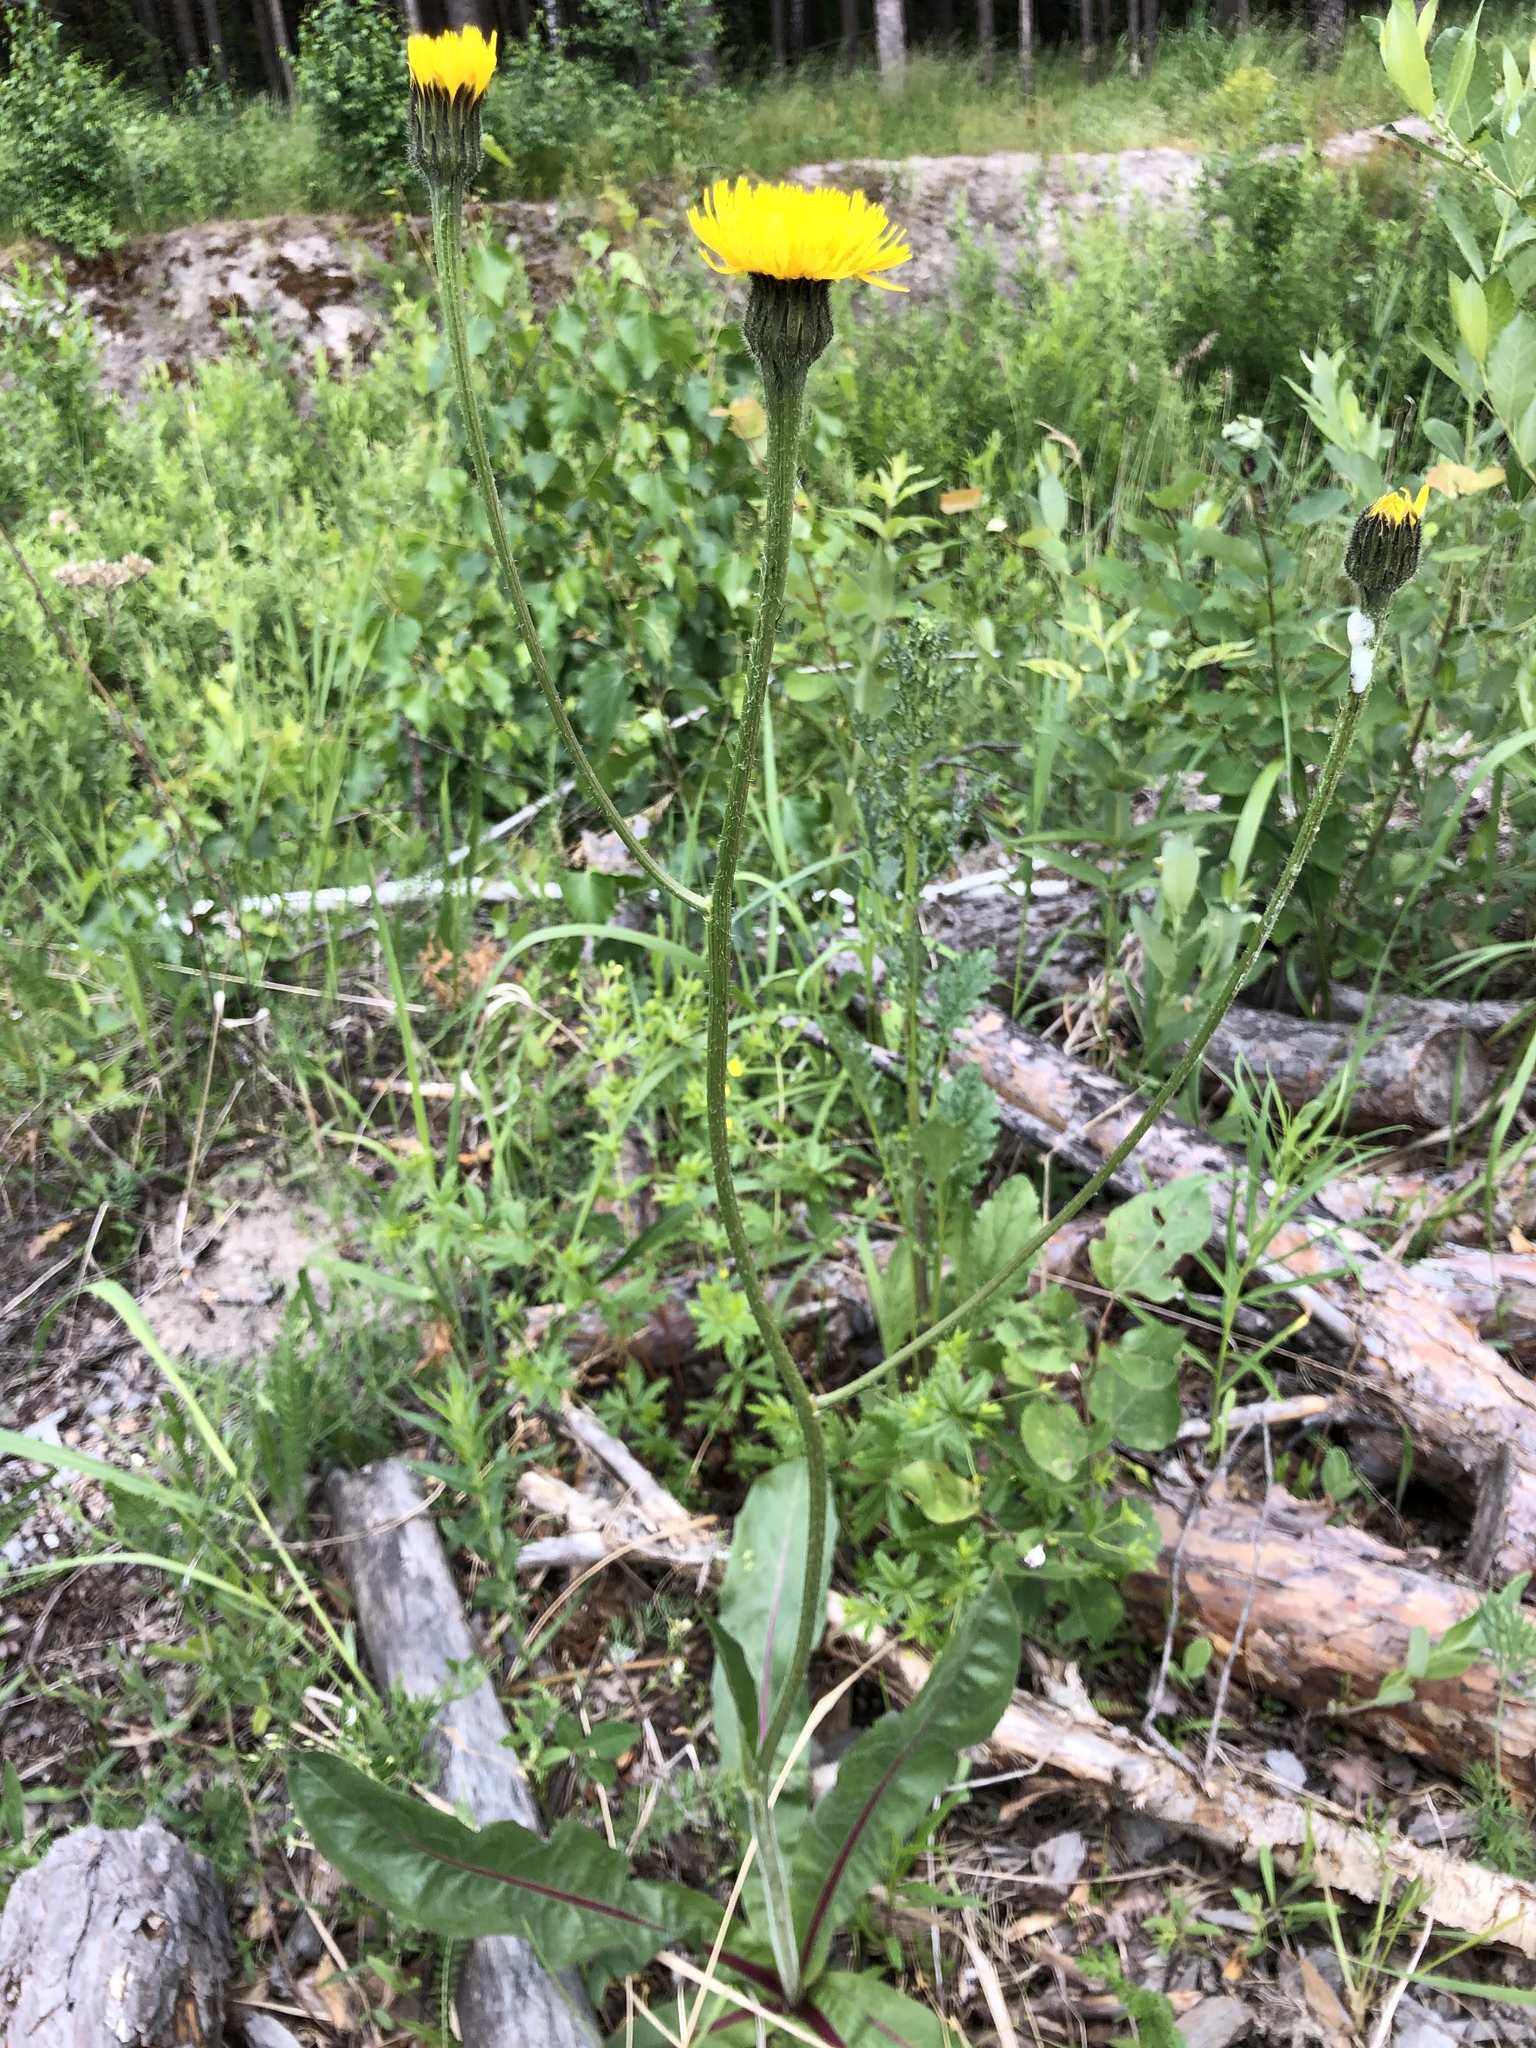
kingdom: Plantae
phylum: Tracheophyta
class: Magnoliopsida
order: Asterales
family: Asteraceae
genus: Trommsdorffia
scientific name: Trommsdorffia maculata
